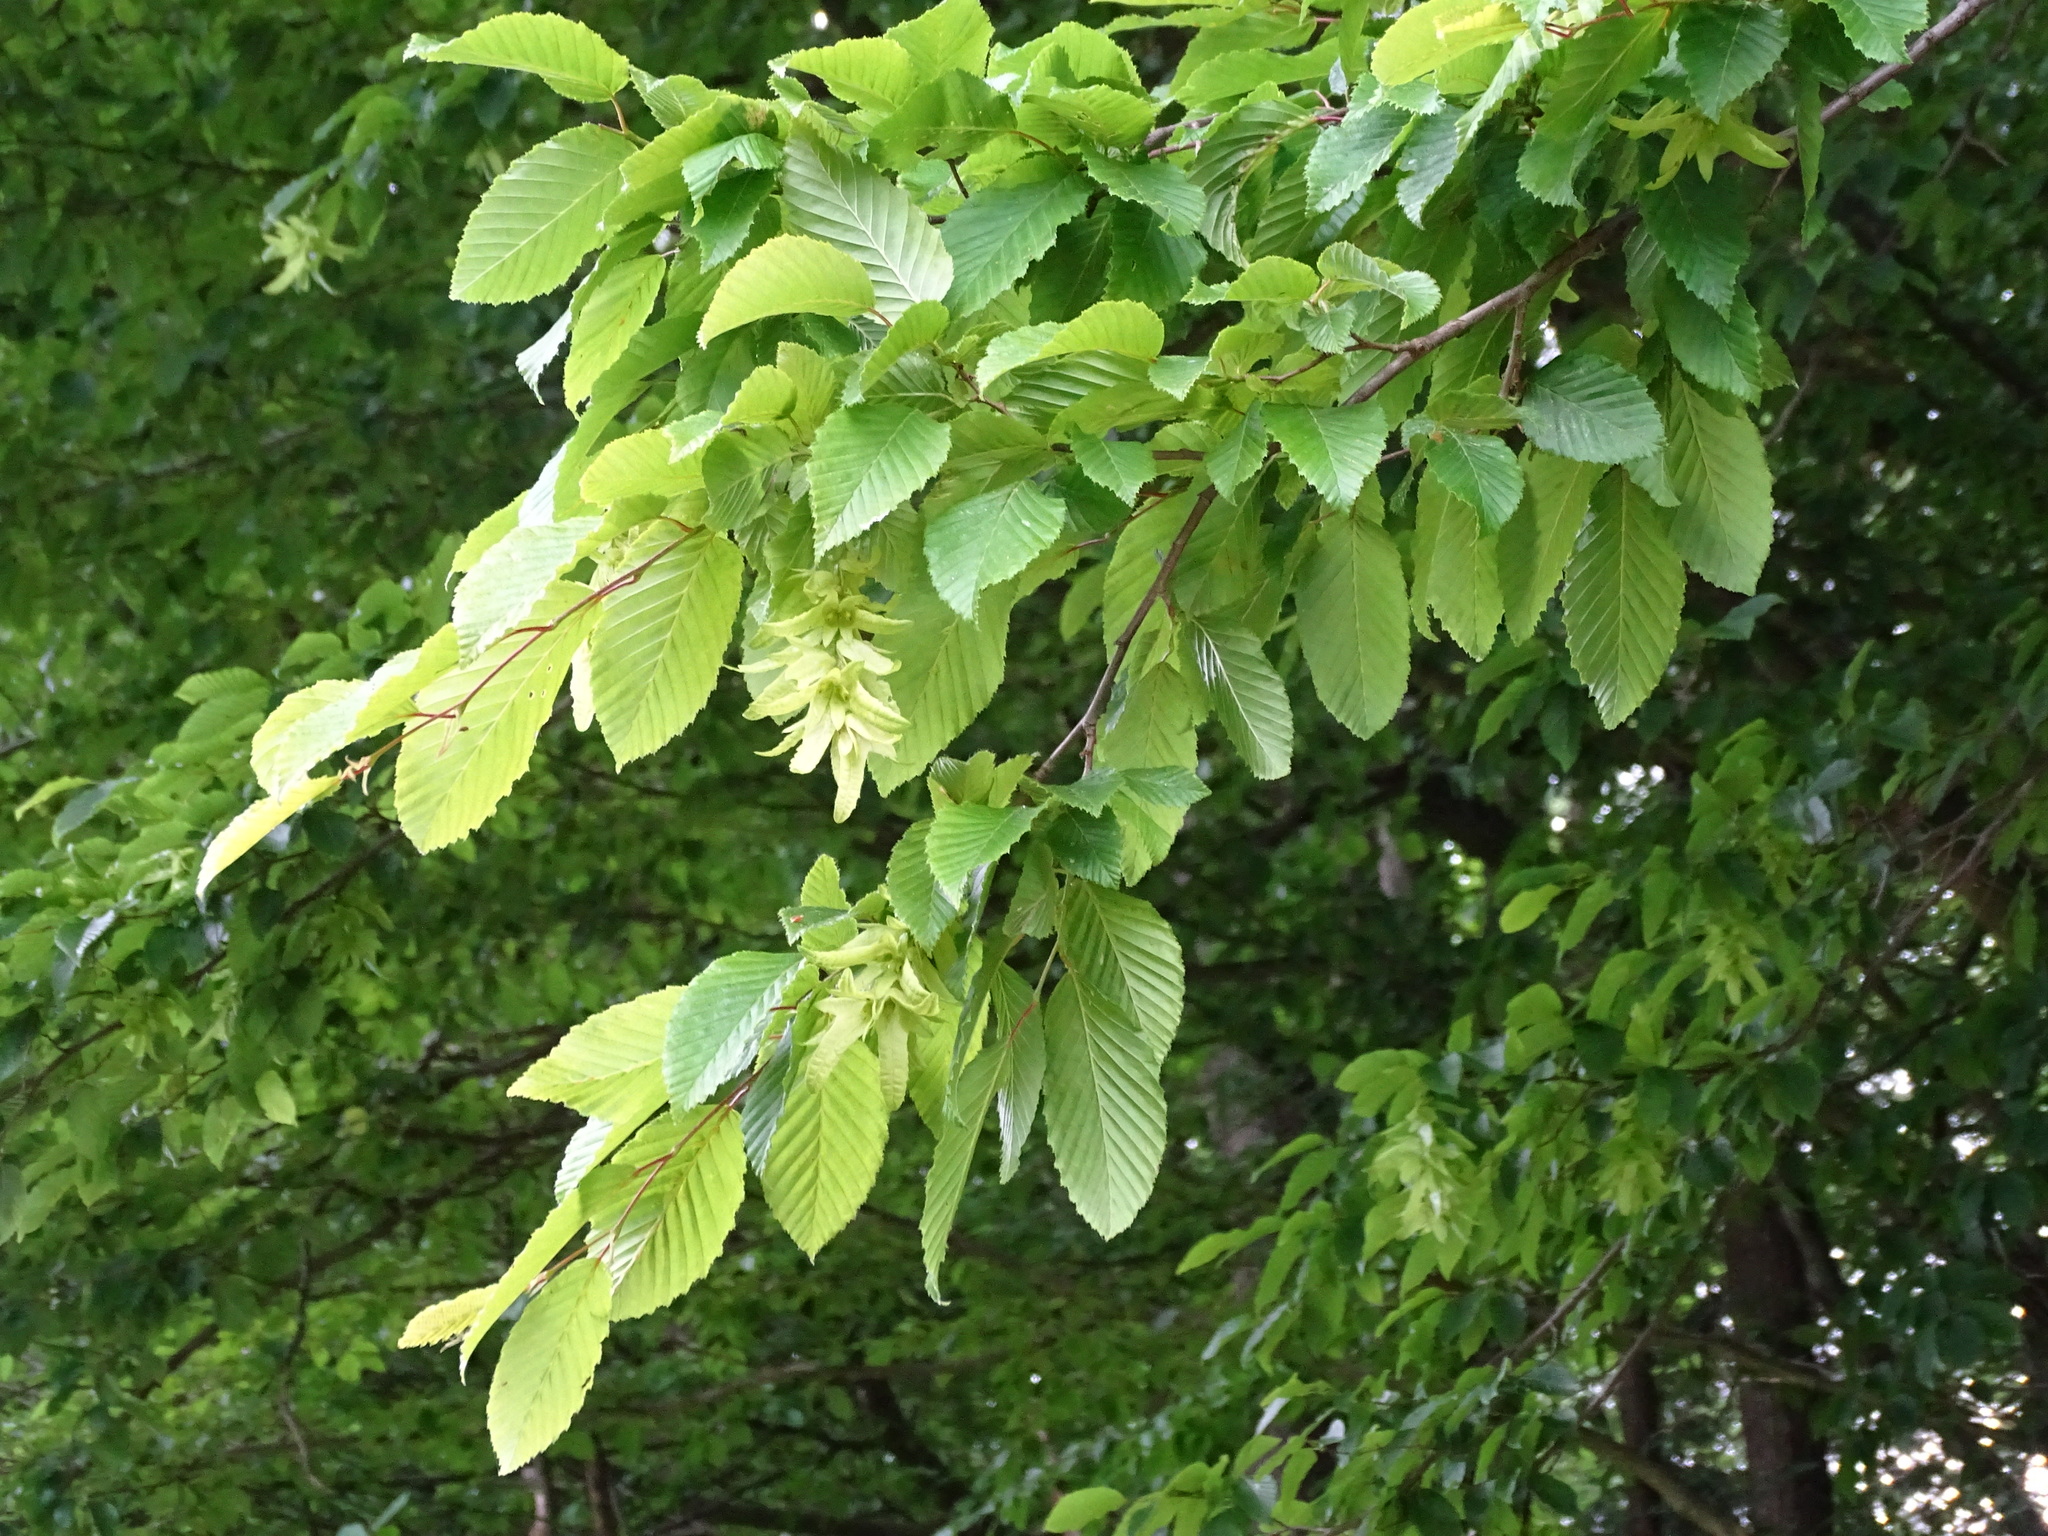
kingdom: Plantae
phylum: Tracheophyta
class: Magnoliopsida
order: Fagales
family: Betulaceae
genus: Carpinus
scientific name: Carpinus betulus
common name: Hornbeam
